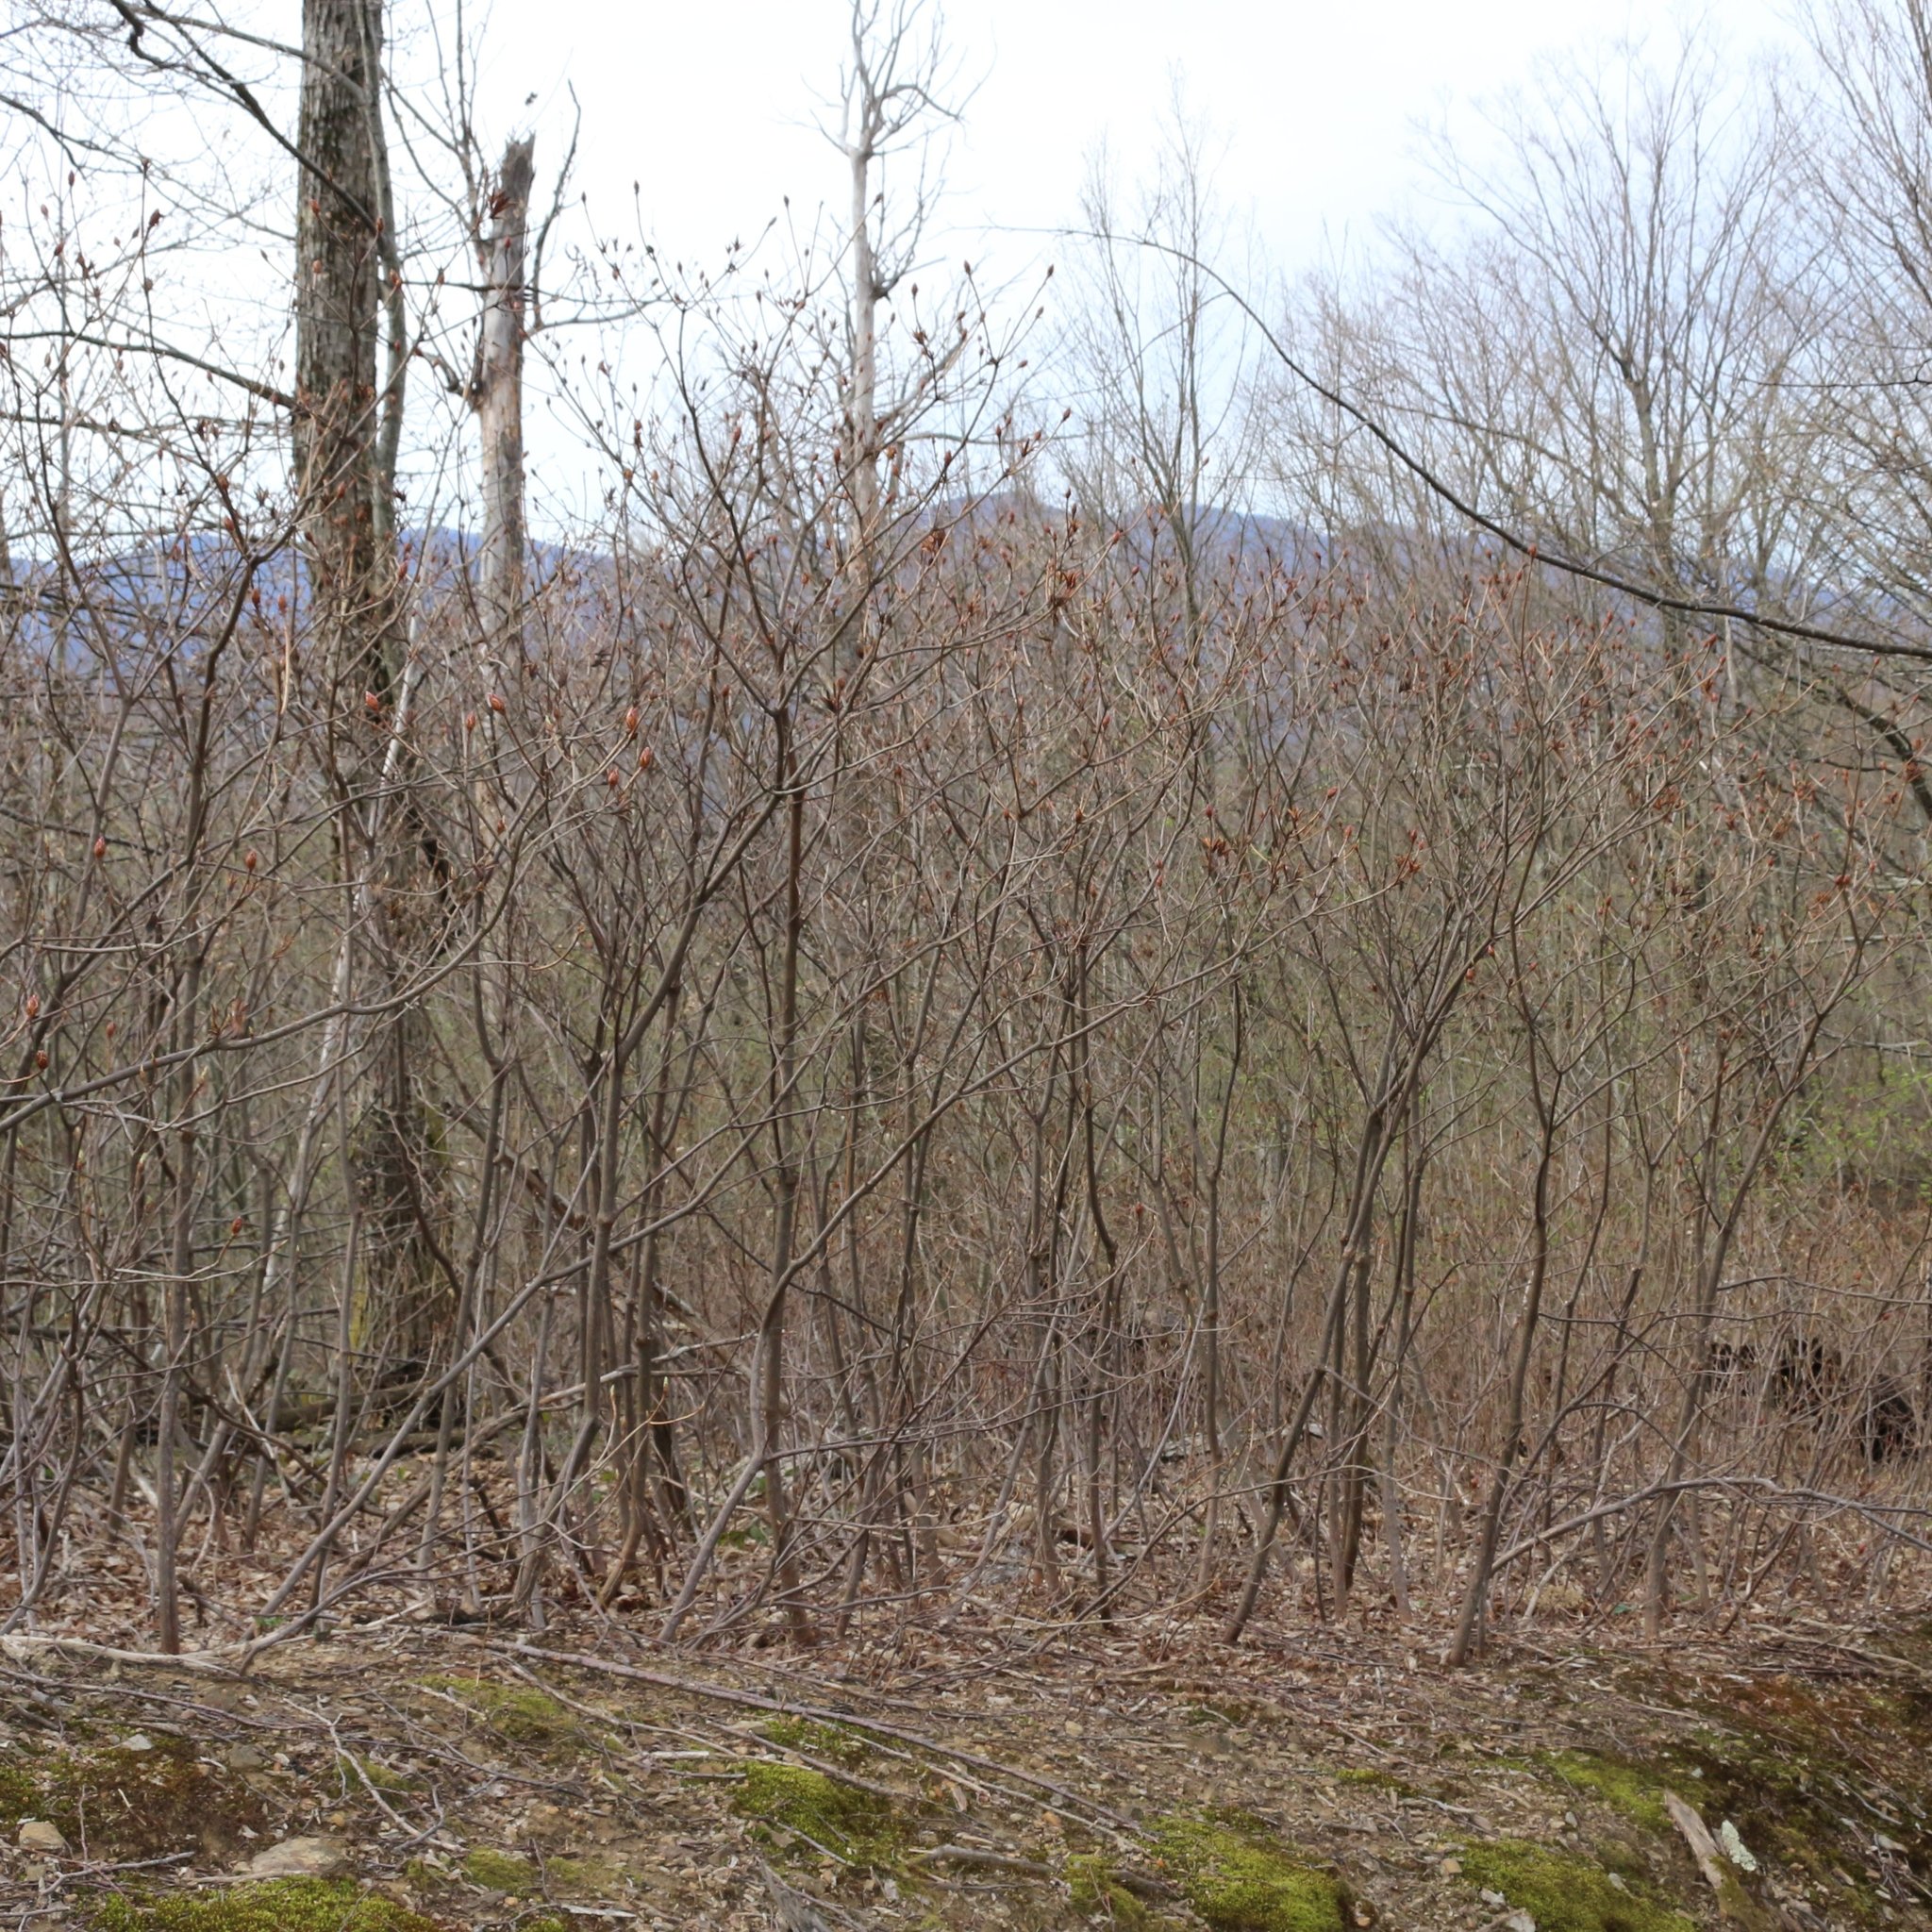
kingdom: Plantae
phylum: Tracheophyta
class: Magnoliopsida
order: Ericales
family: Ericaceae
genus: Rhododendron
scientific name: Rhododendron luteum
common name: Yellow azalea
